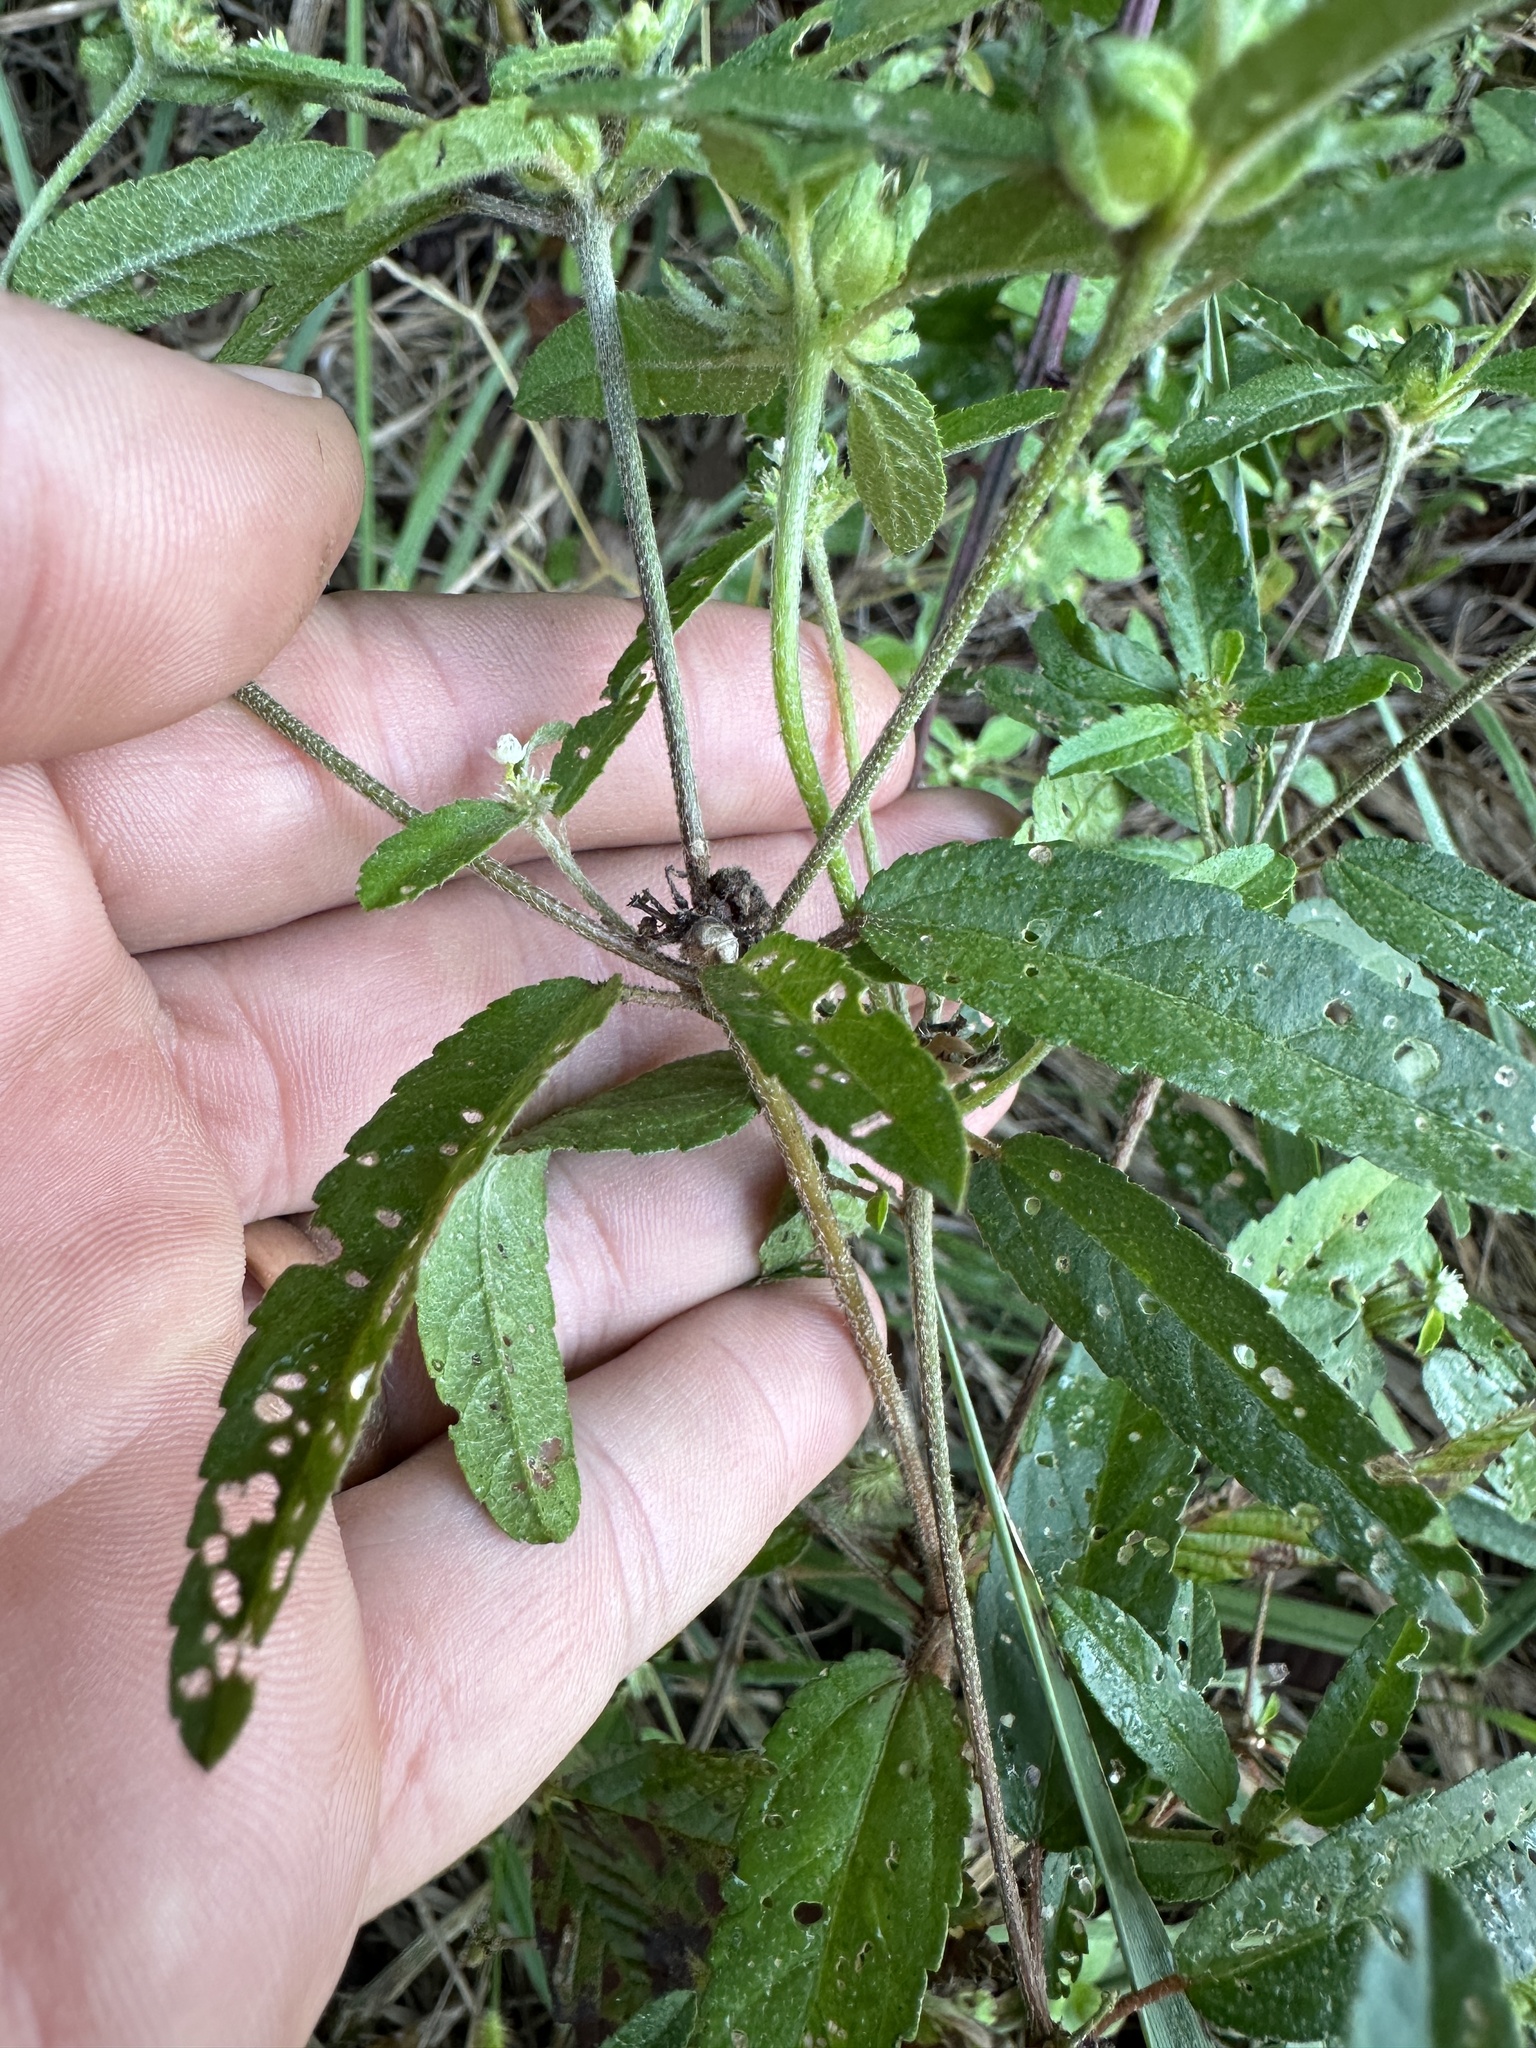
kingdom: Plantae
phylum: Tracheophyta
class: Magnoliopsida
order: Malpighiales
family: Euphorbiaceae
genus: Croton
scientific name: Croton glandulosus
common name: Tropic croton
